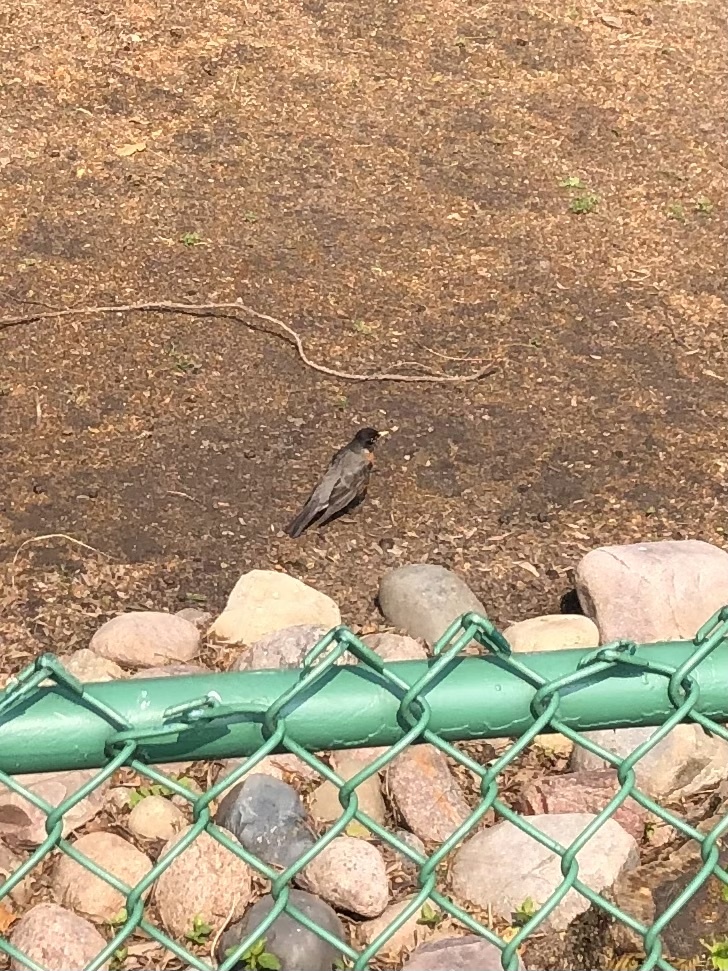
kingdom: Animalia
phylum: Chordata
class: Aves
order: Passeriformes
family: Turdidae
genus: Turdus
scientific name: Turdus migratorius
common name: American robin
